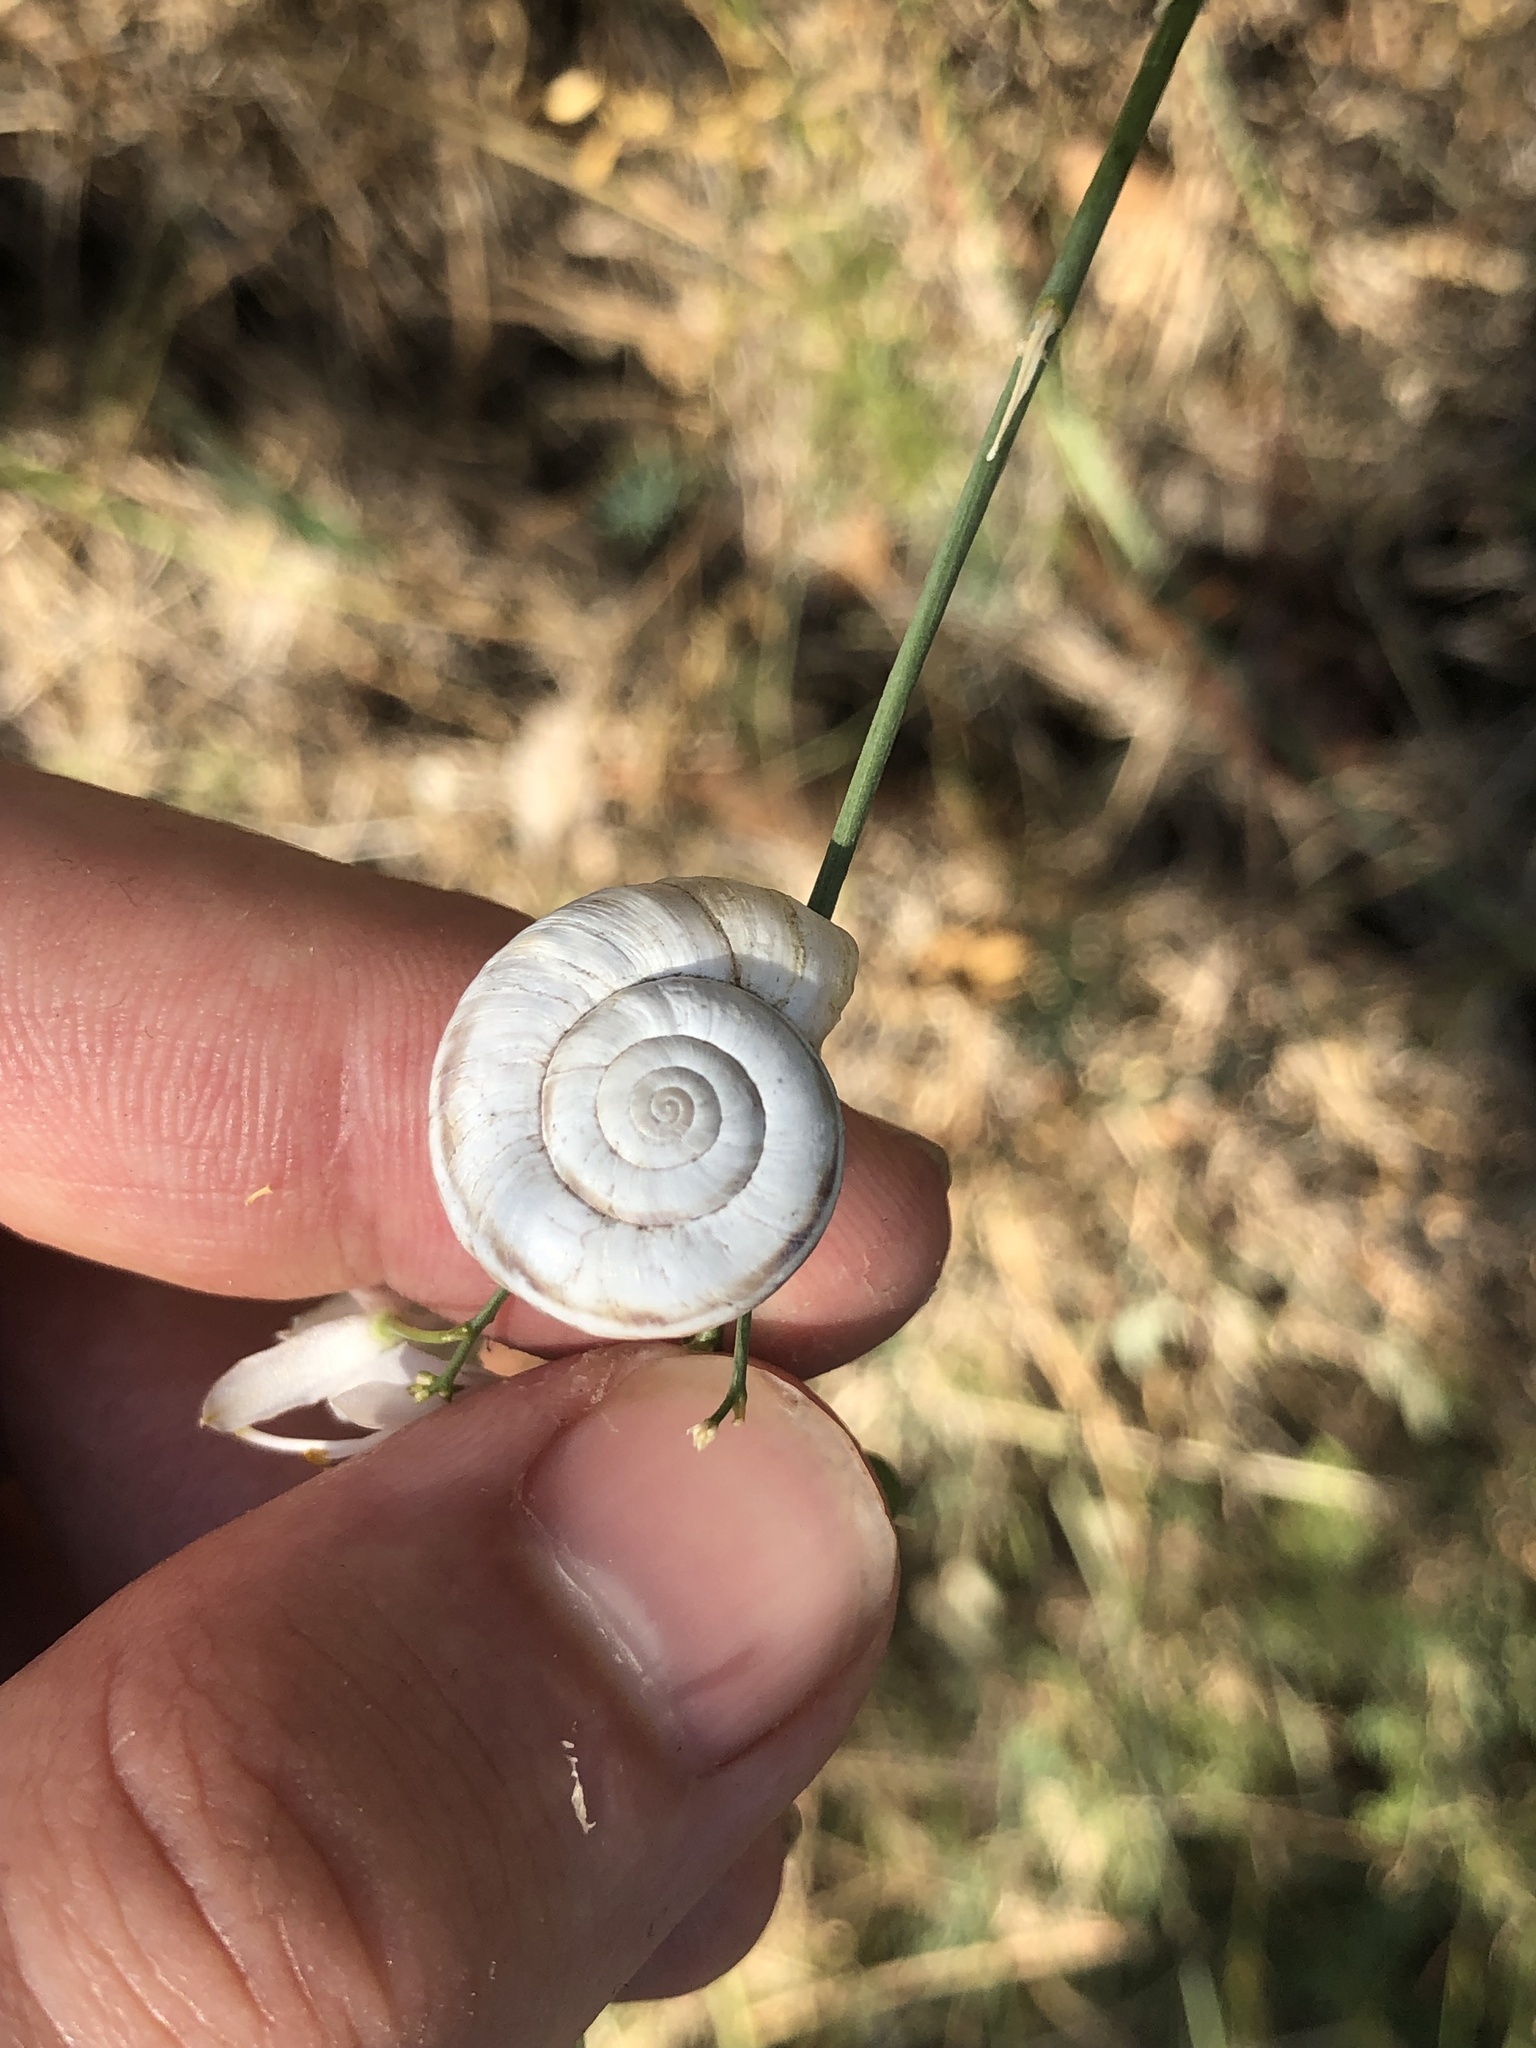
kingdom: Animalia
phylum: Mollusca
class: Gastropoda
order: Stylommatophora
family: Geomitridae
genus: Xerolenta
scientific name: Xerolenta obvia
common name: White heath snail
